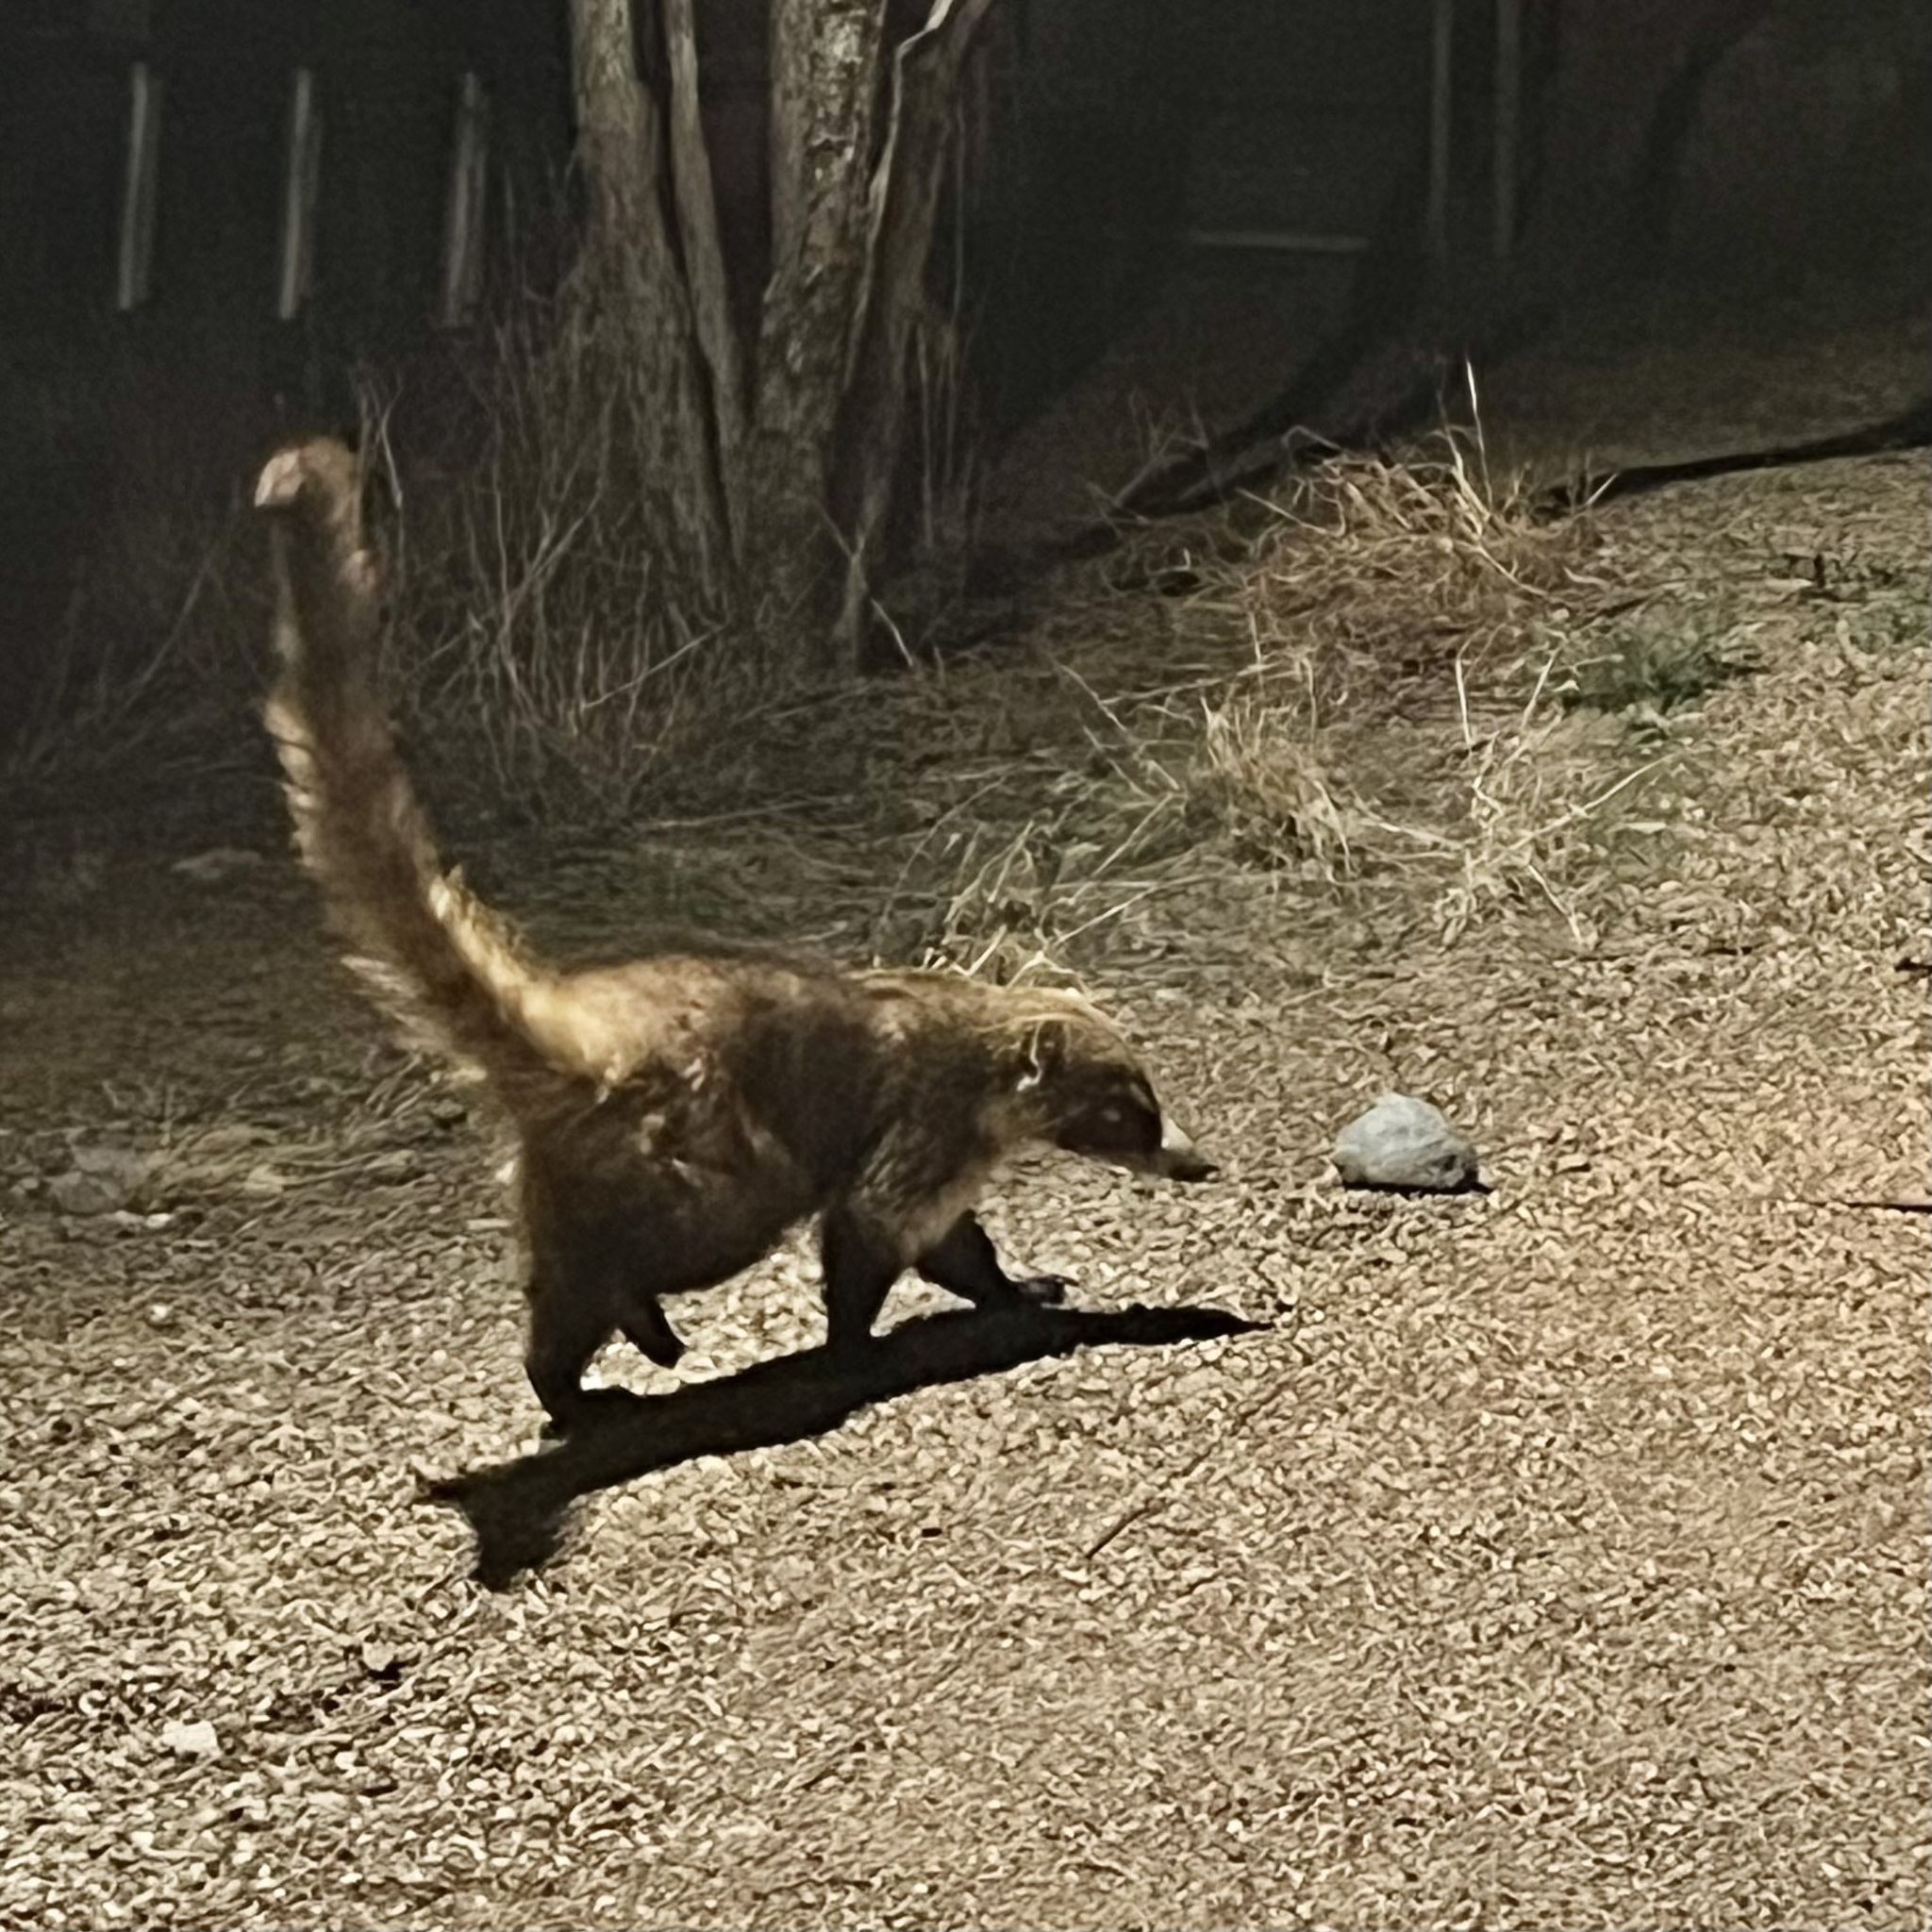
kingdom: Animalia
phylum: Chordata
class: Mammalia
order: Carnivora
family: Procyonidae
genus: Nasua
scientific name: Nasua narica
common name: White-nosed coati
